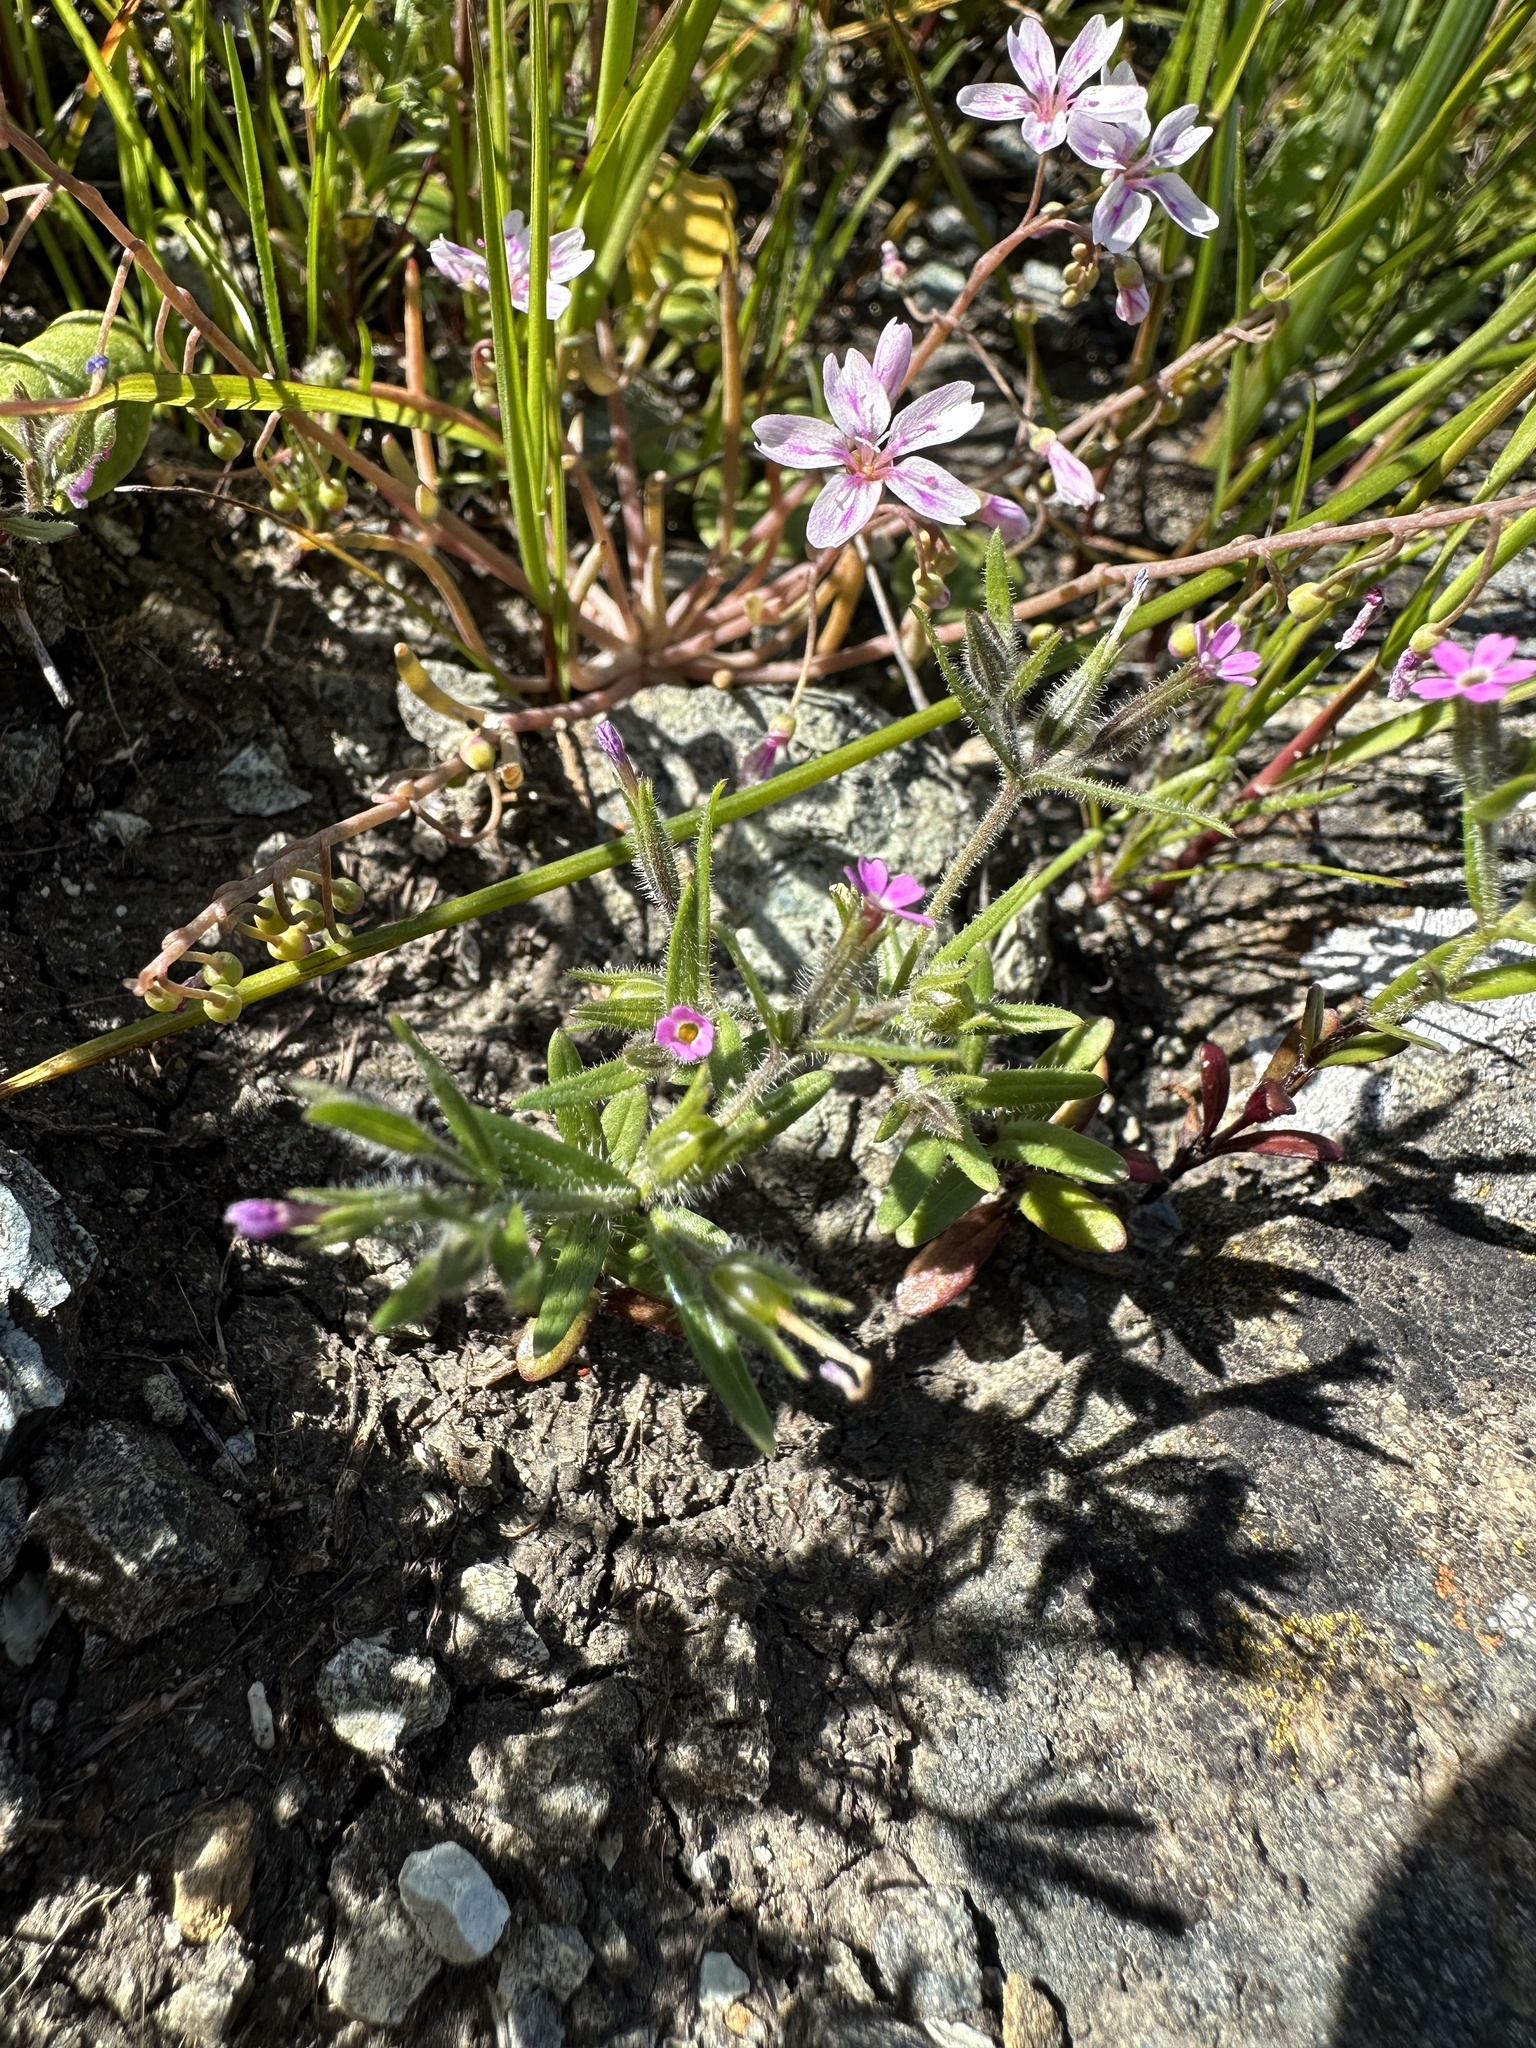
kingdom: Plantae
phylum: Tracheophyta
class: Magnoliopsida
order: Ericales
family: Polemoniaceae
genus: Phlox
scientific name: Phlox gracilis
